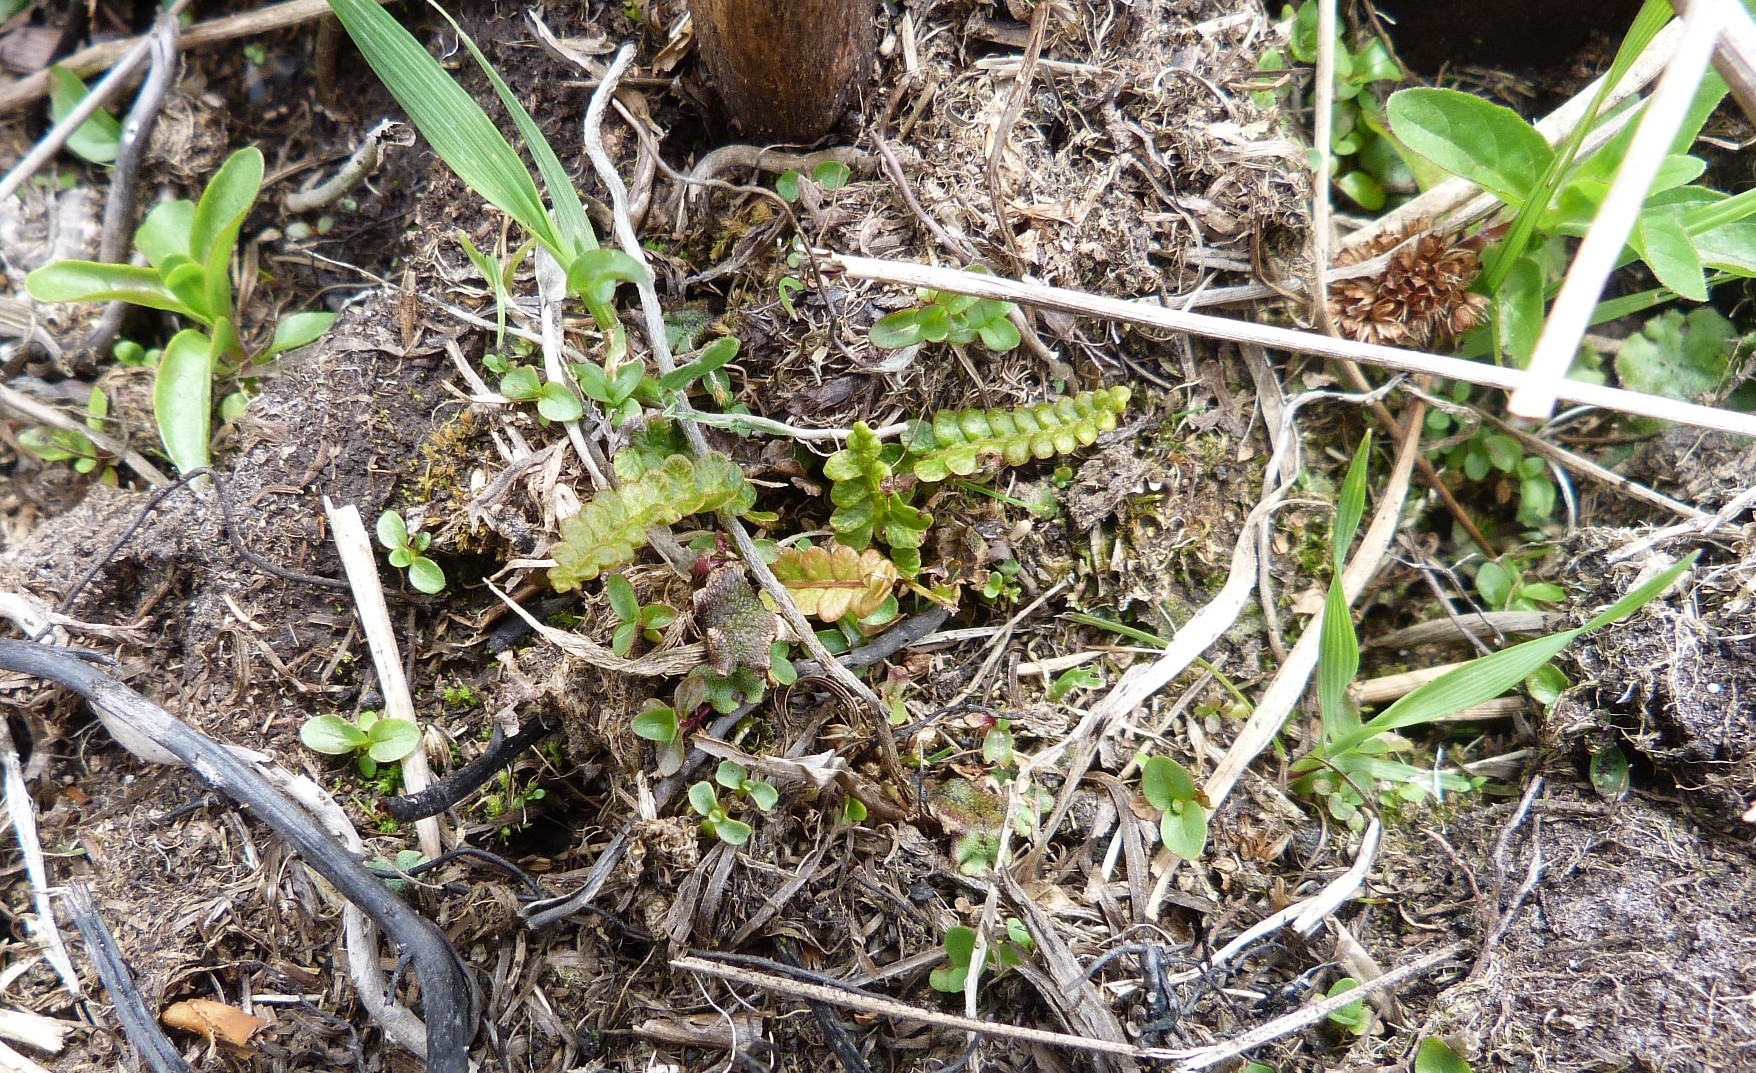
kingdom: Plantae
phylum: Tracheophyta
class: Polypodiopsida
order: Polypodiales
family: Blechnaceae
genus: Austroblechnum
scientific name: Austroblechnum penna-marina
